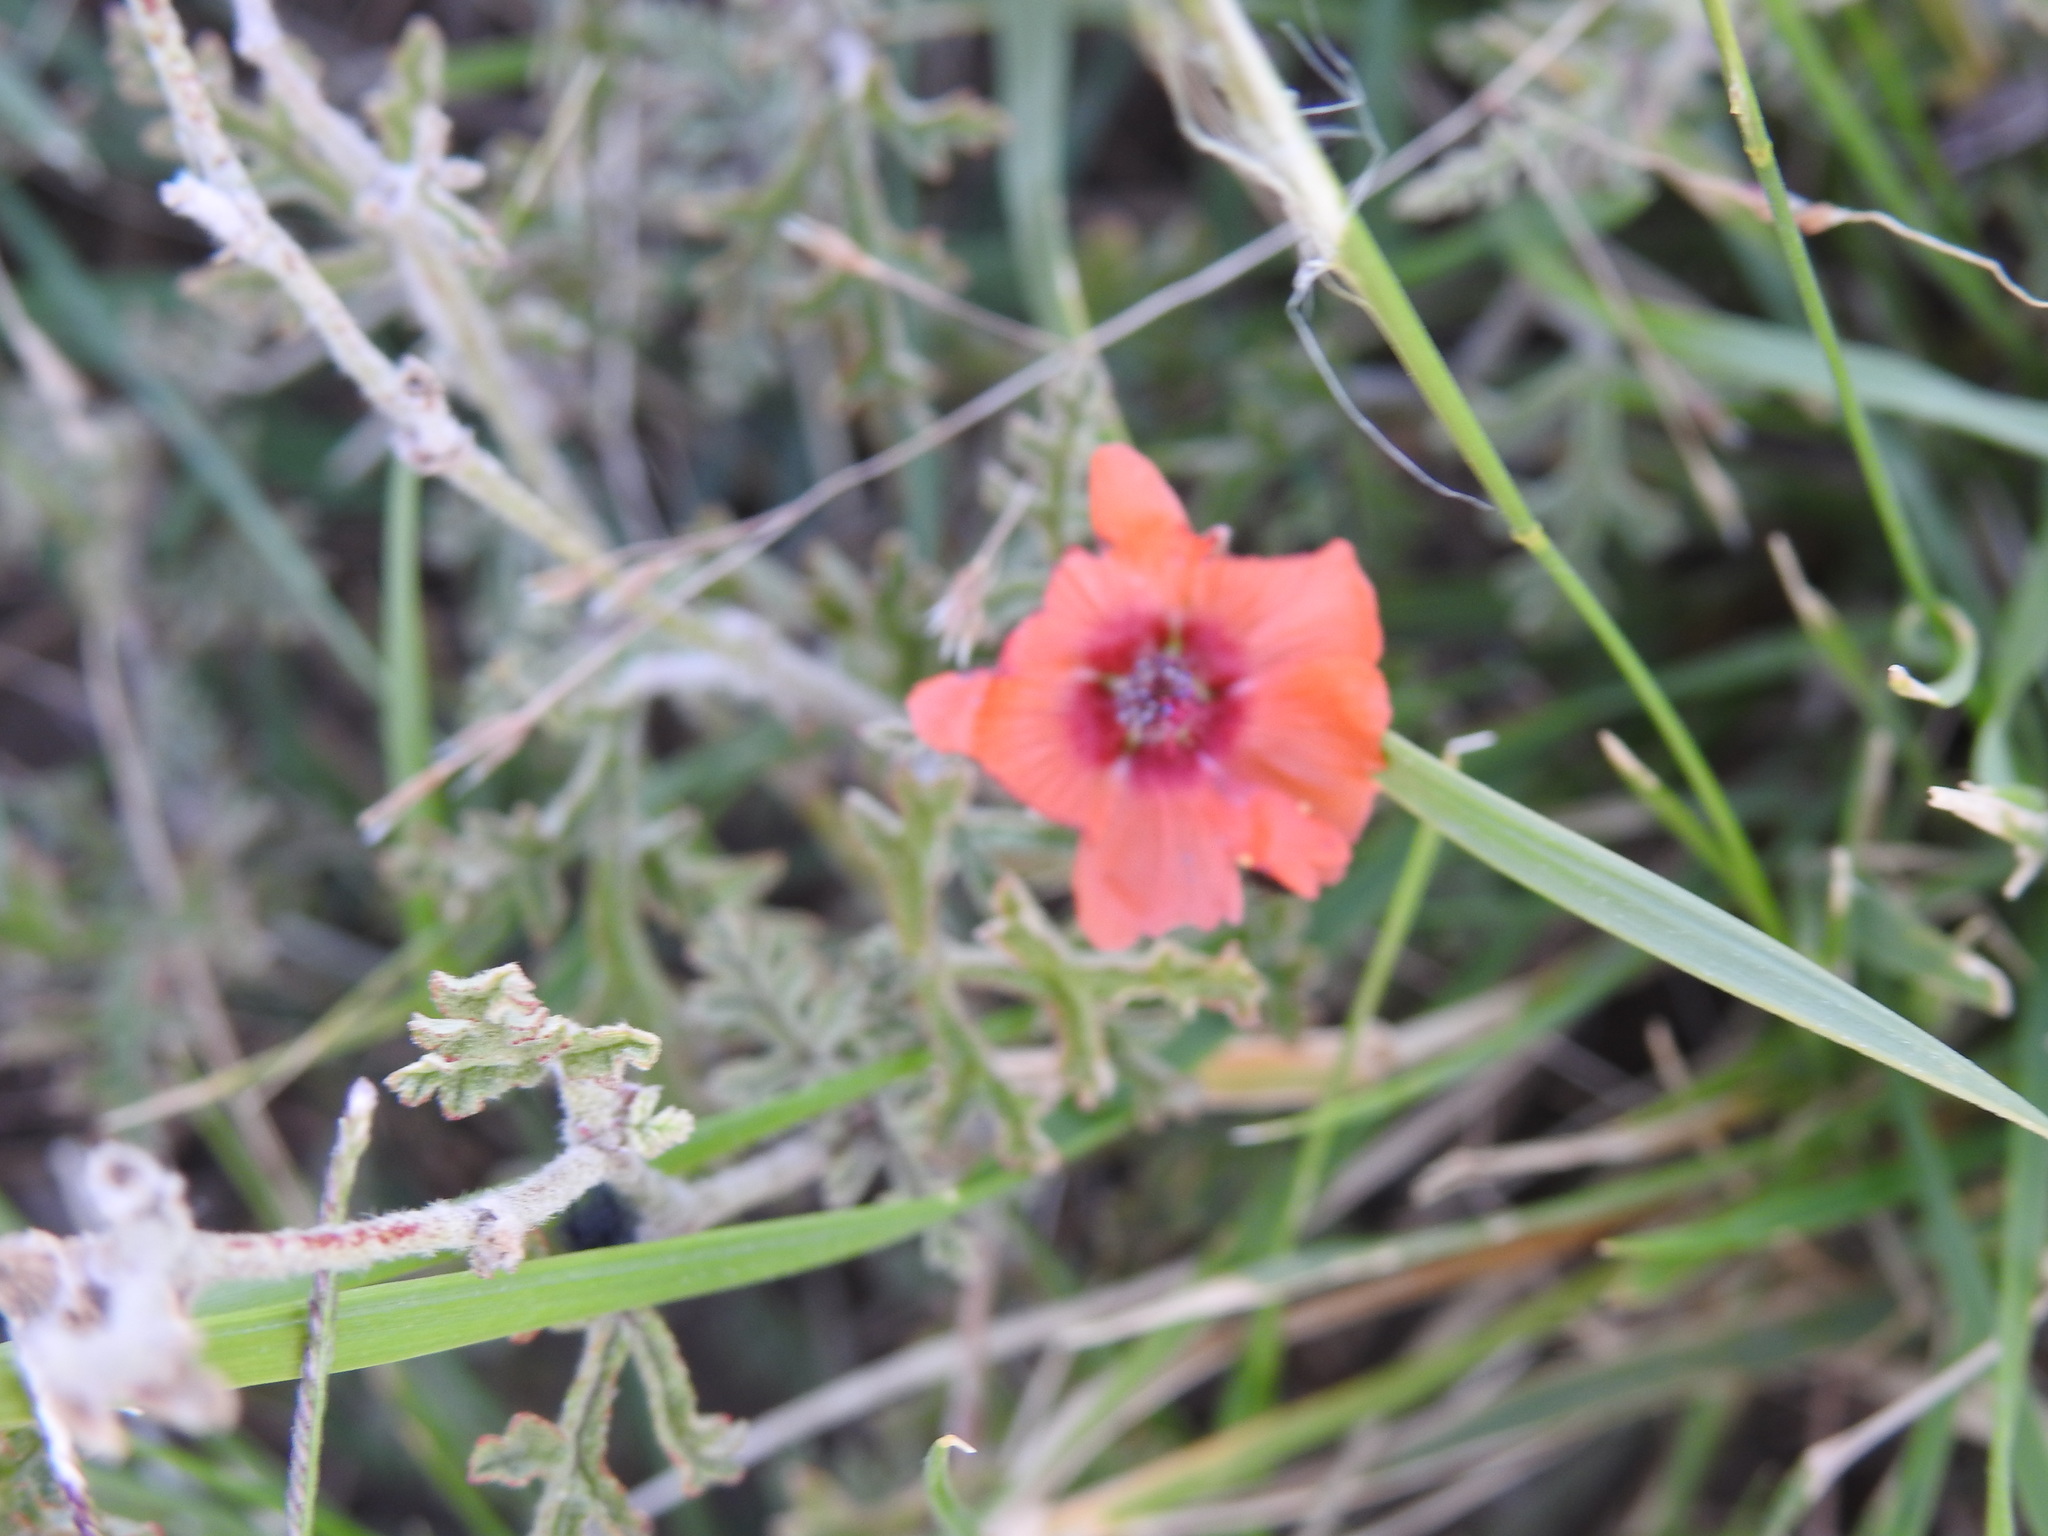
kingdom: Plantae
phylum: Tracheophyta
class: Magnoliopsida
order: Malvales
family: Malvaceae
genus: Sphaeralcea
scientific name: Sphaeralcea australis
